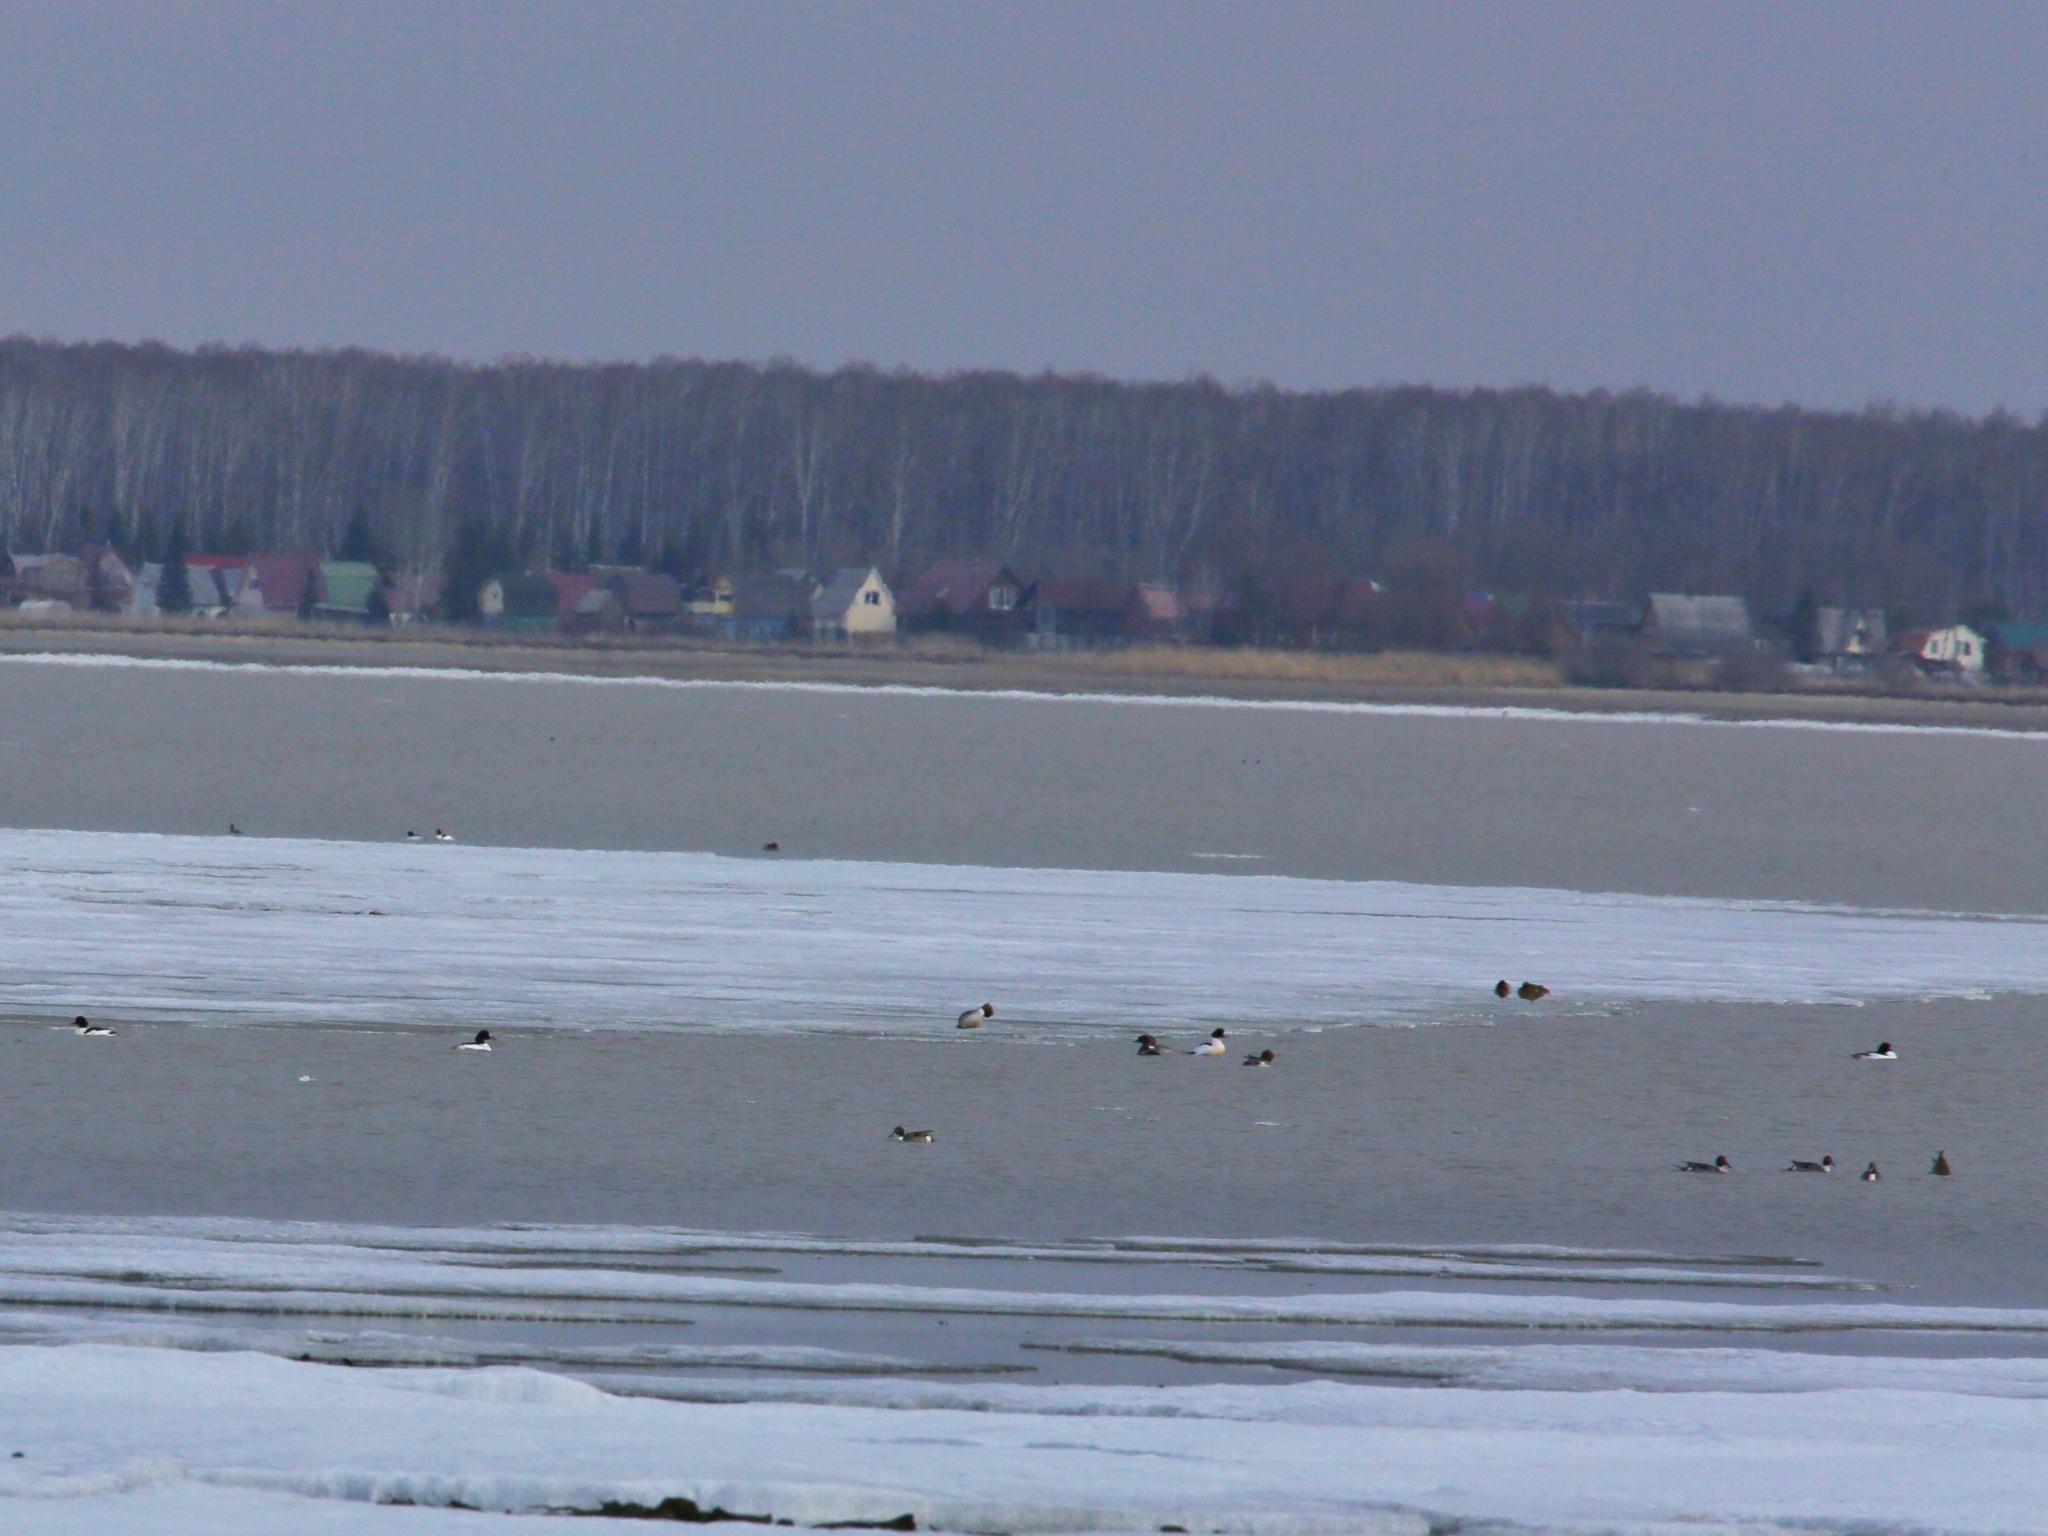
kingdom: Animalia
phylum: Chordata
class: Aves
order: Anseriformes
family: Anatidae
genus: Anas
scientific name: Anas acuta
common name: Northern pintail
